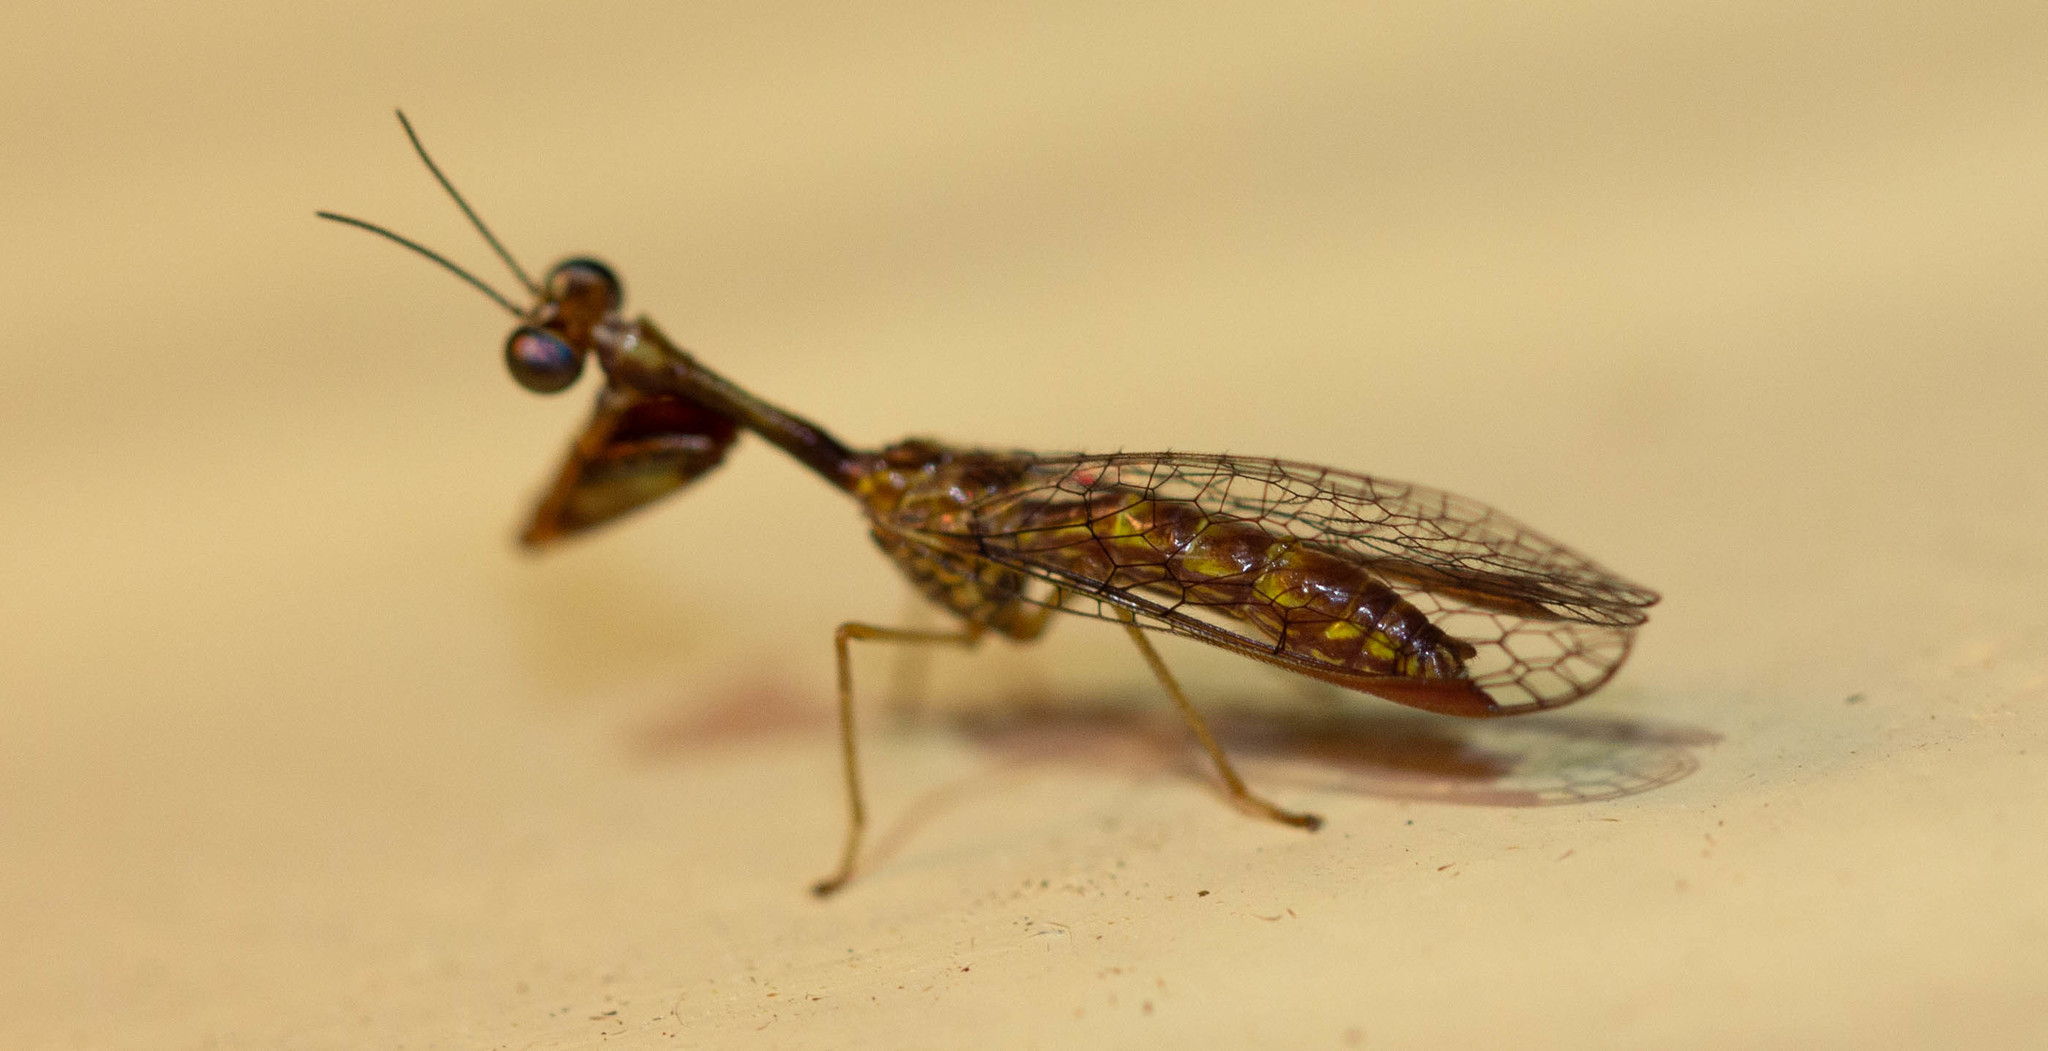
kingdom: Animalia
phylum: Arthropoda
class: Insecta
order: Neuroptera
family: Mantispidae
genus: Leptomantispa
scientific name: Leptomantispa pulchella
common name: Stevens's mantidfly
